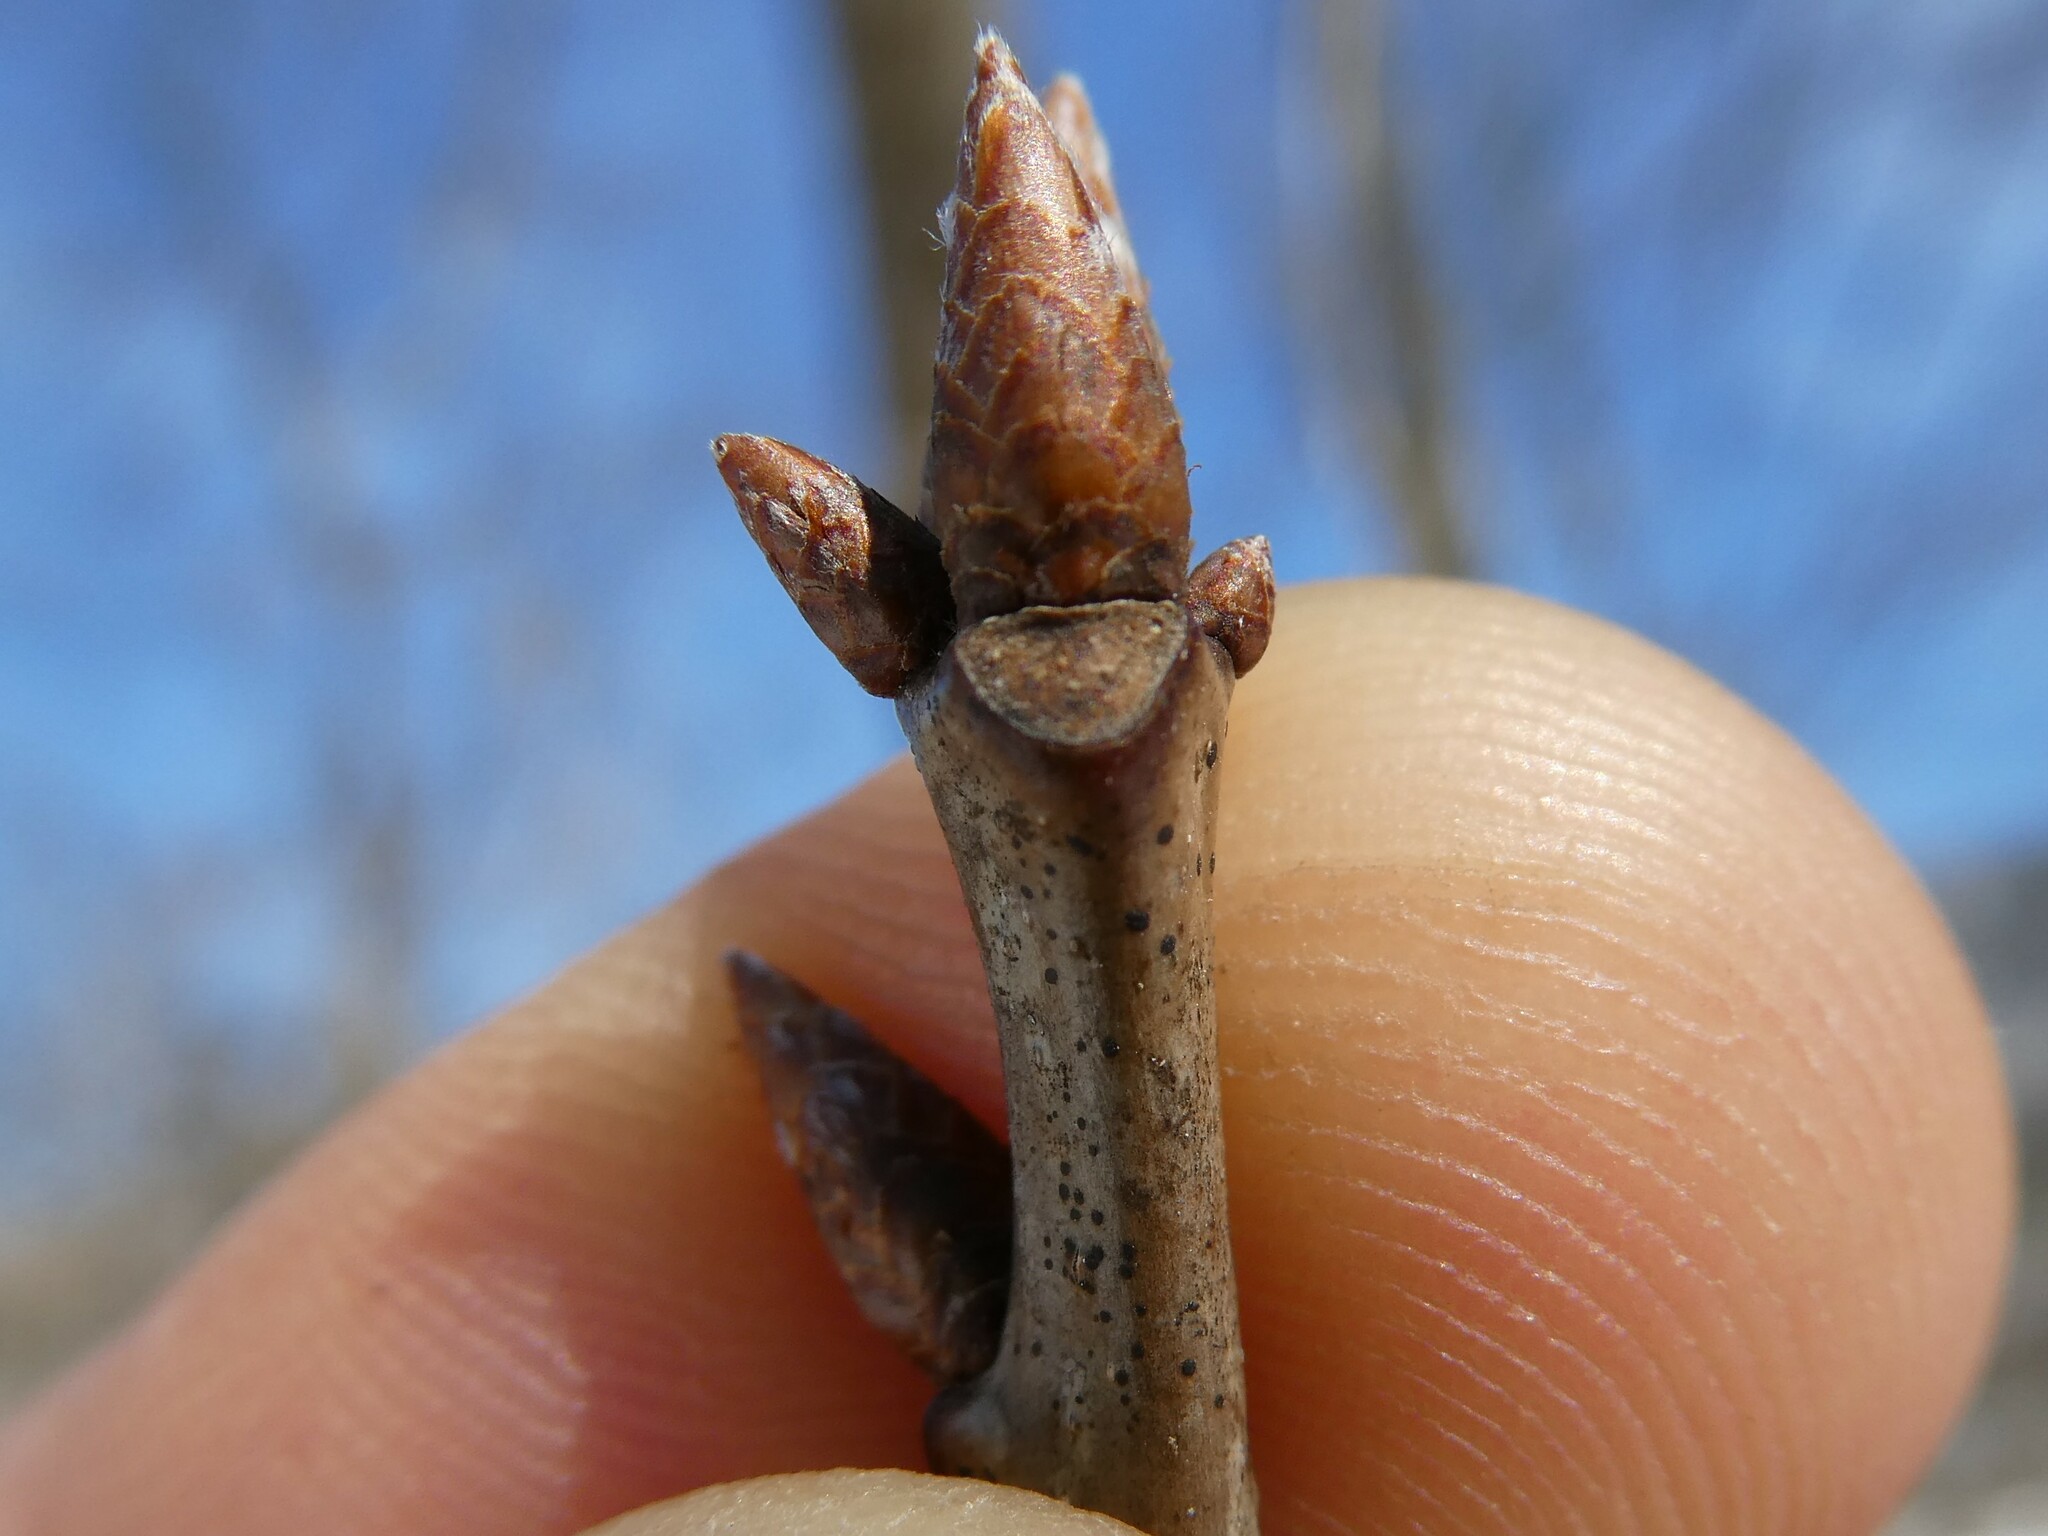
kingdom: Plantae
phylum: Tracheophyta
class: Magnoliopsida
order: Fagales
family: Fagaceae
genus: Quercus
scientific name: Quercus rubra
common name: Red oak
